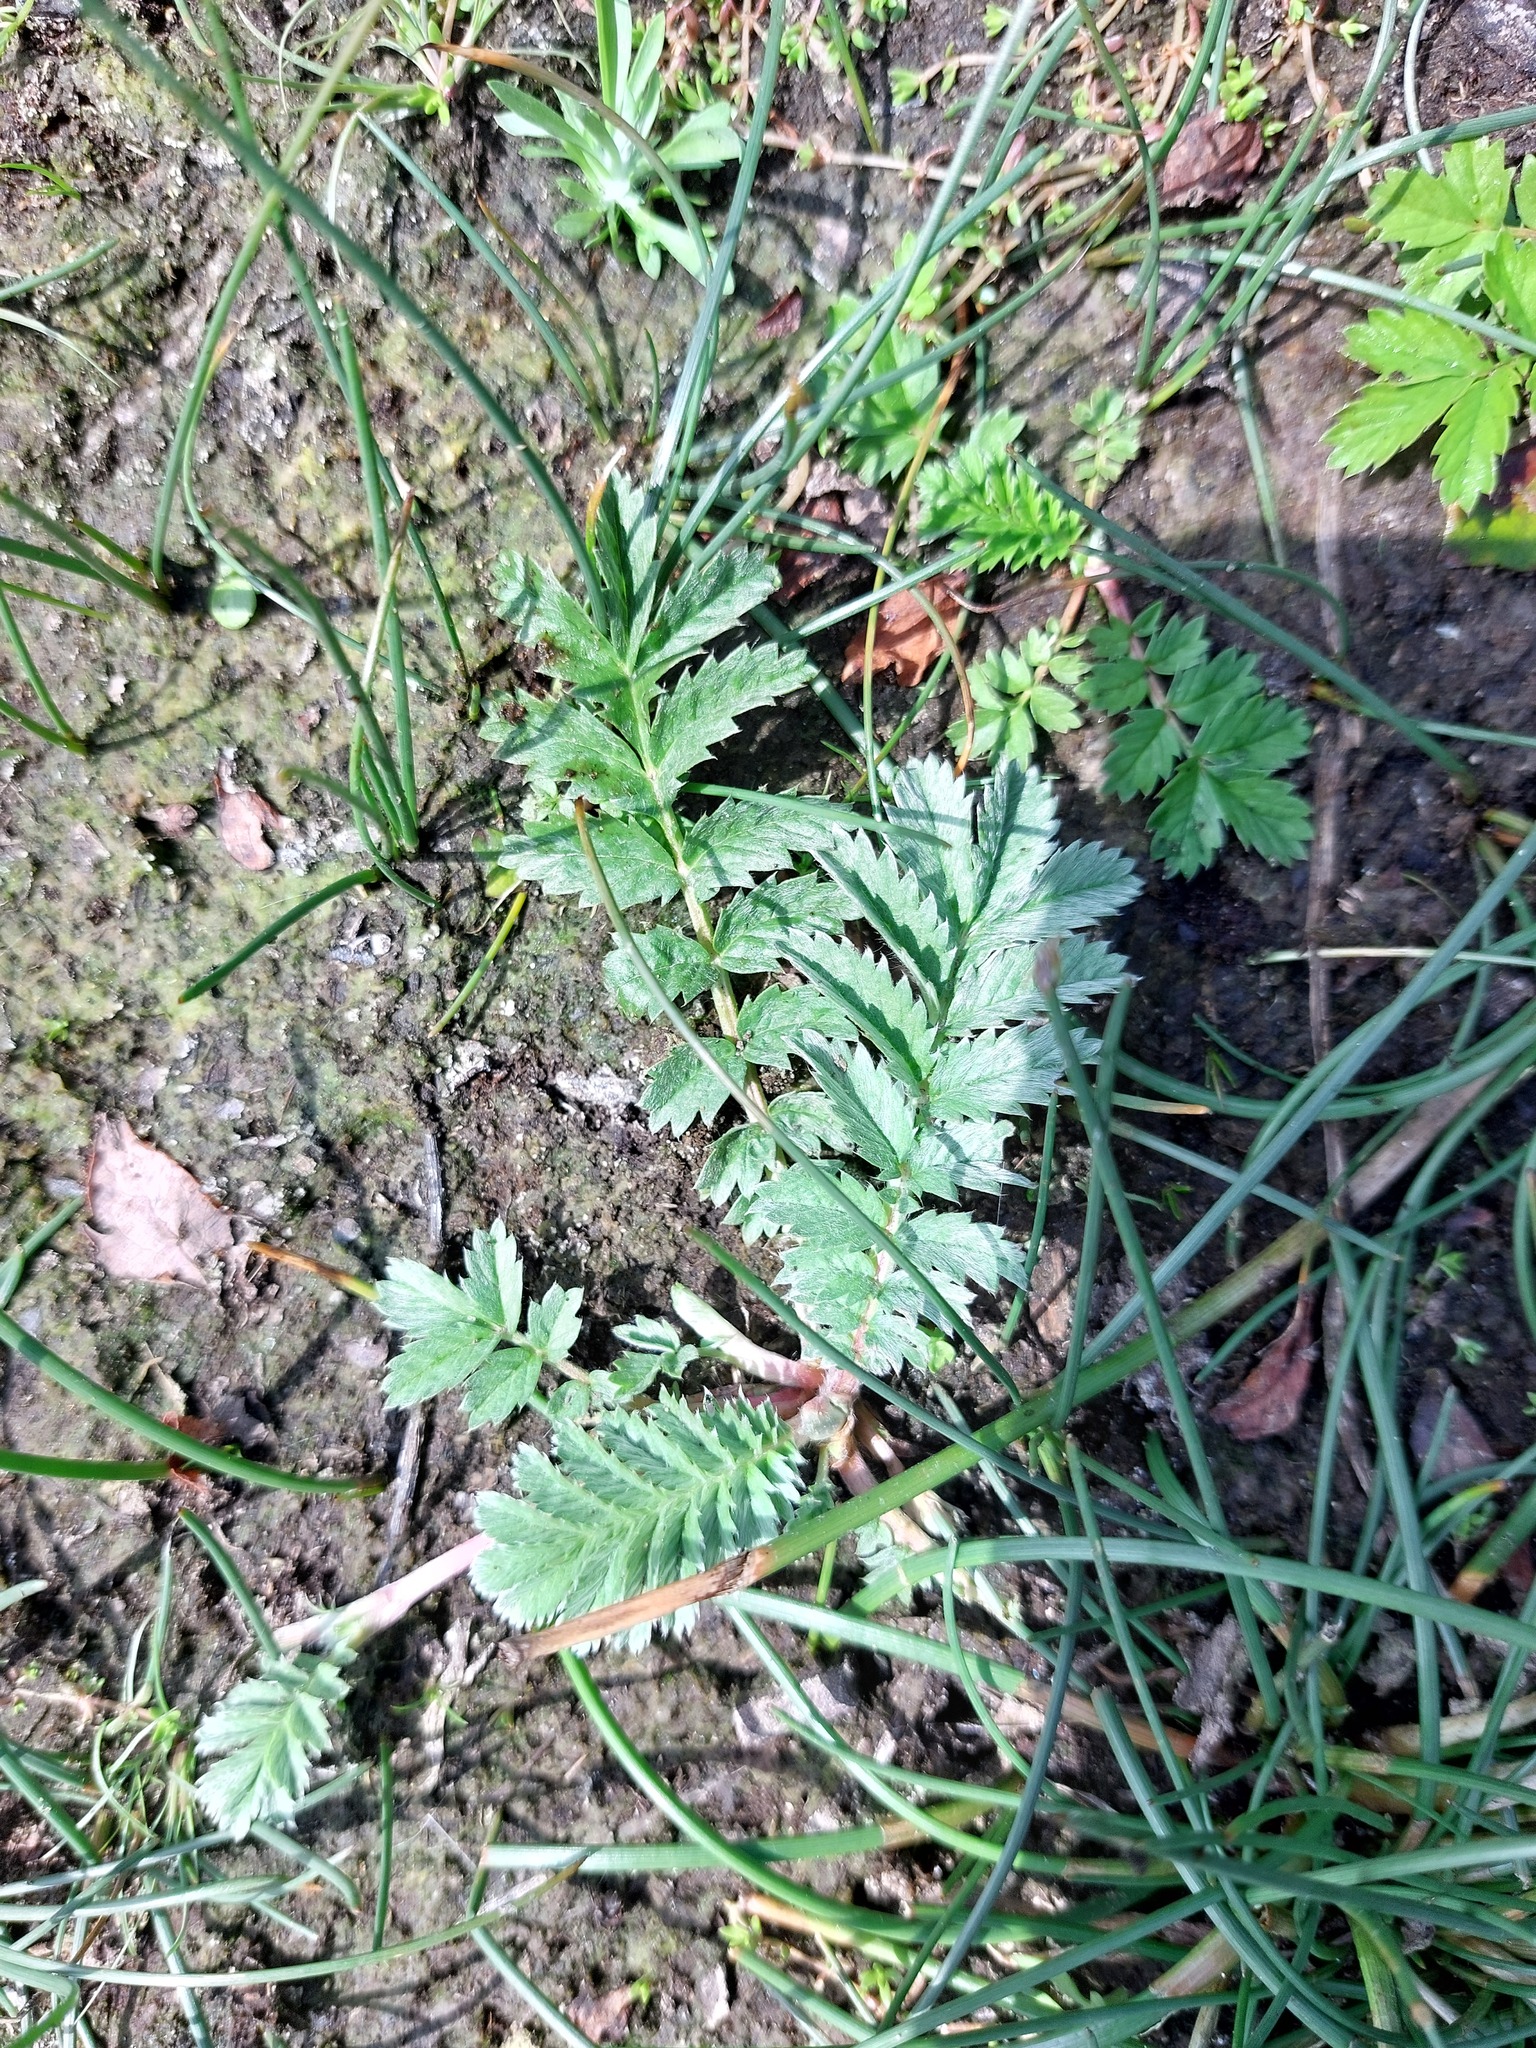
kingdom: Plantae
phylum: Tracheophyta
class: Magnoliopsida
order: Rosales
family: Rosaceae
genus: Argentina
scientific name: Argentina anserina
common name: Common silverweed
